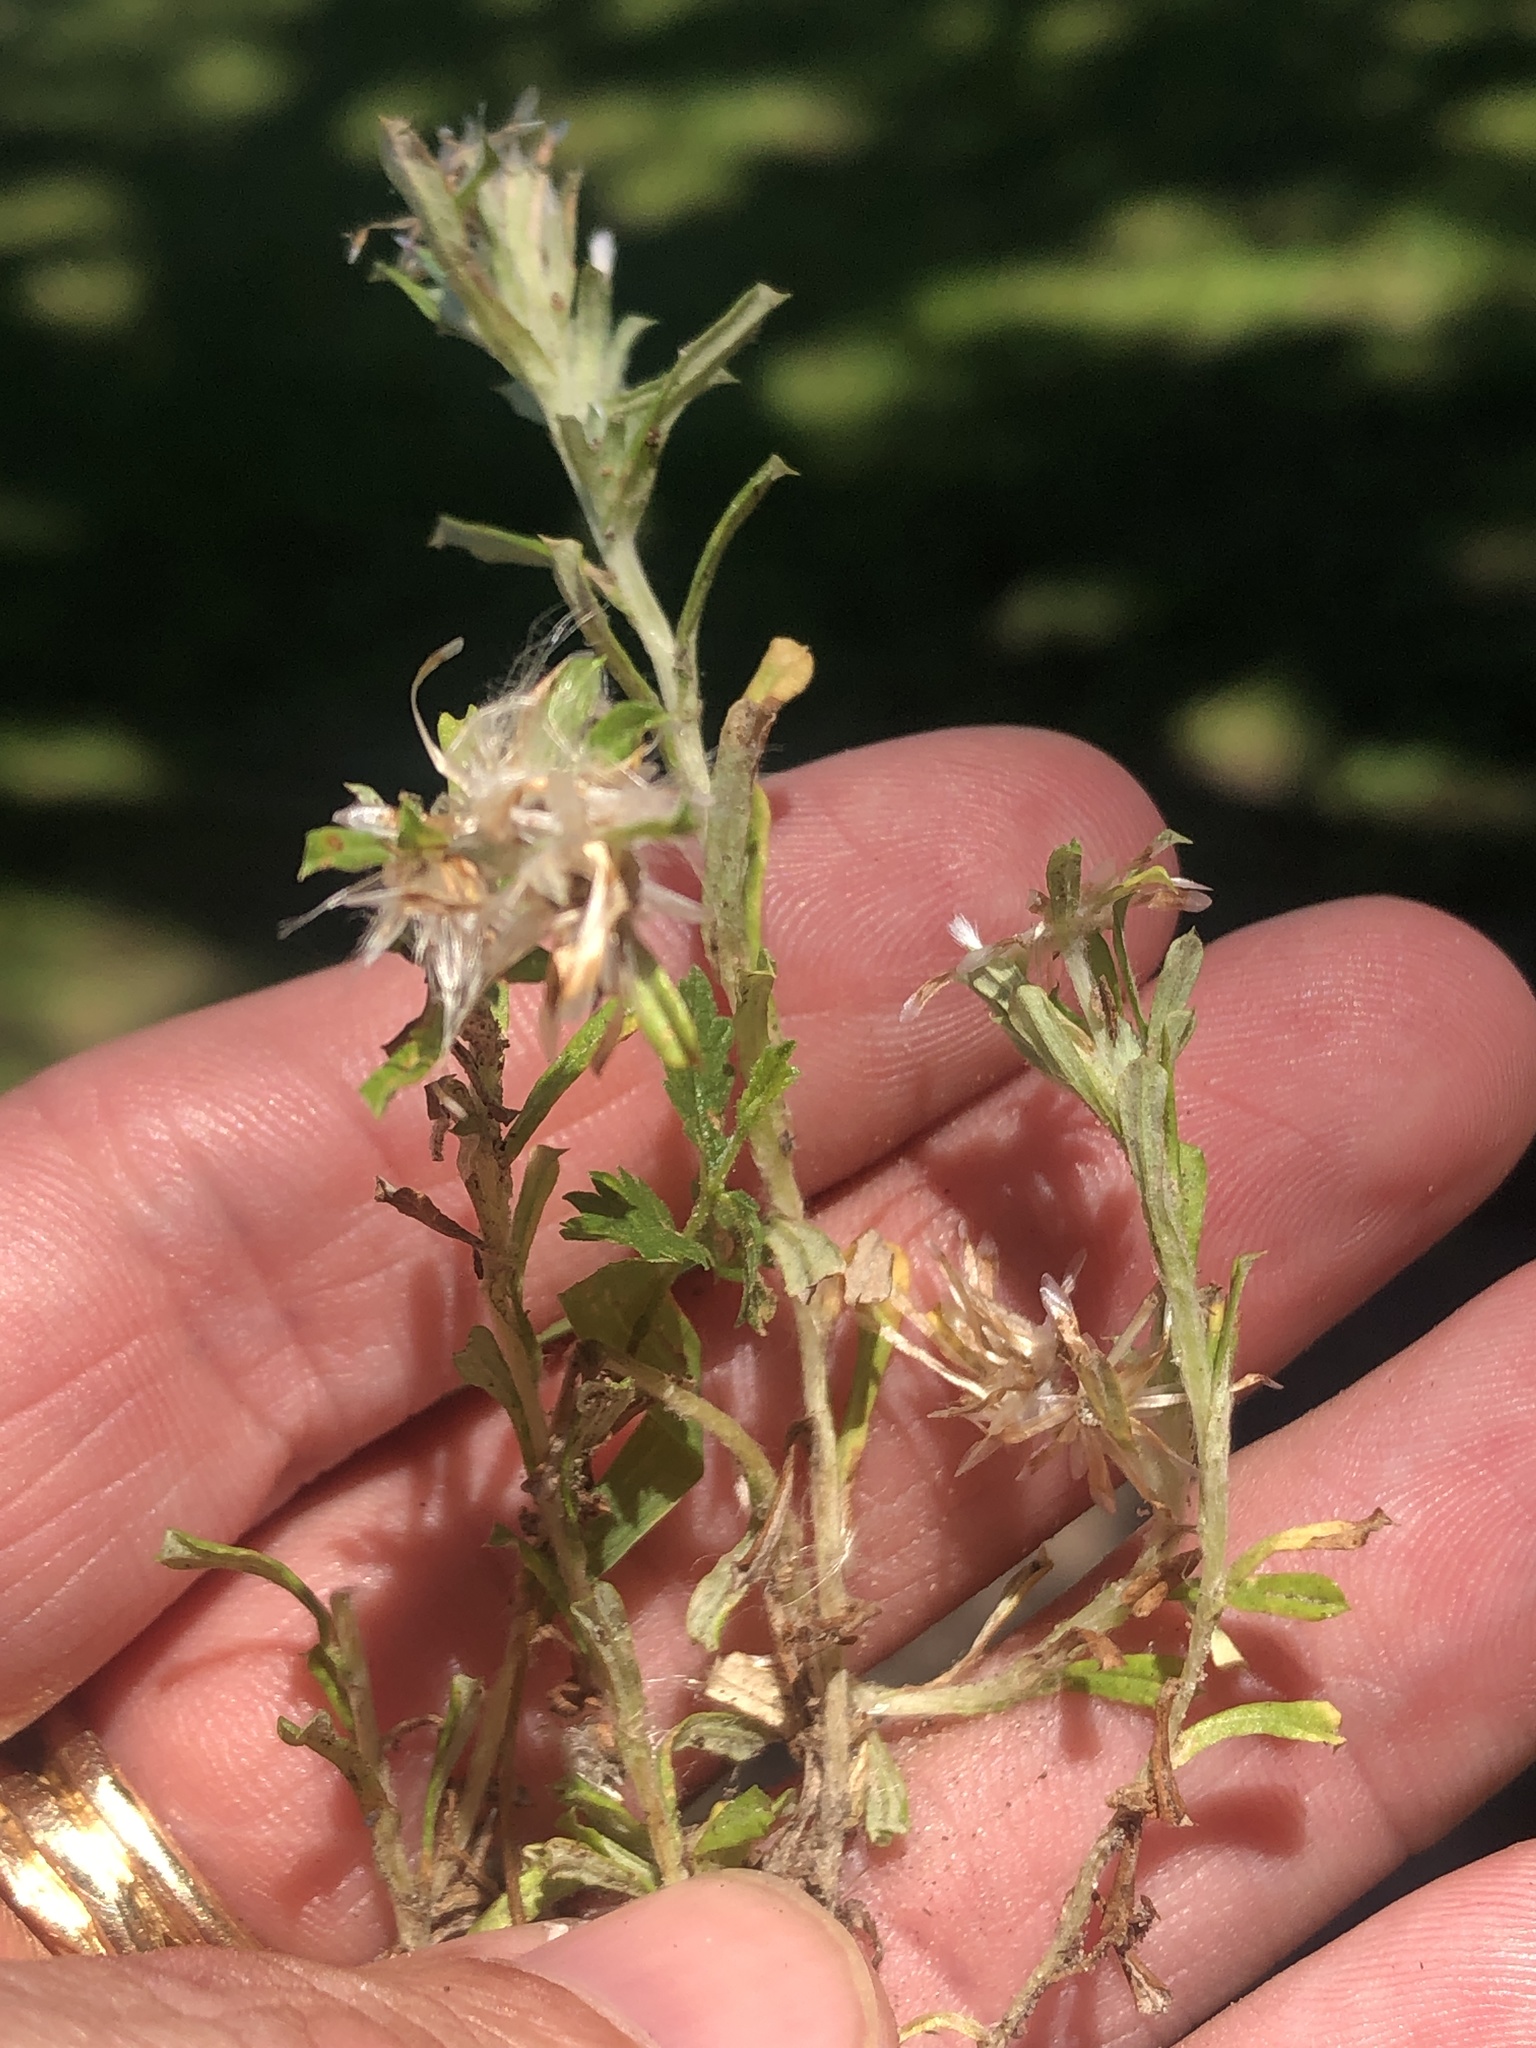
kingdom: Plantae
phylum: Tracheophyta
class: Magnoliopsida
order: Asterales
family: Asteraceae
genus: Facelis
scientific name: Facelis retusa
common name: Annual trampweed
